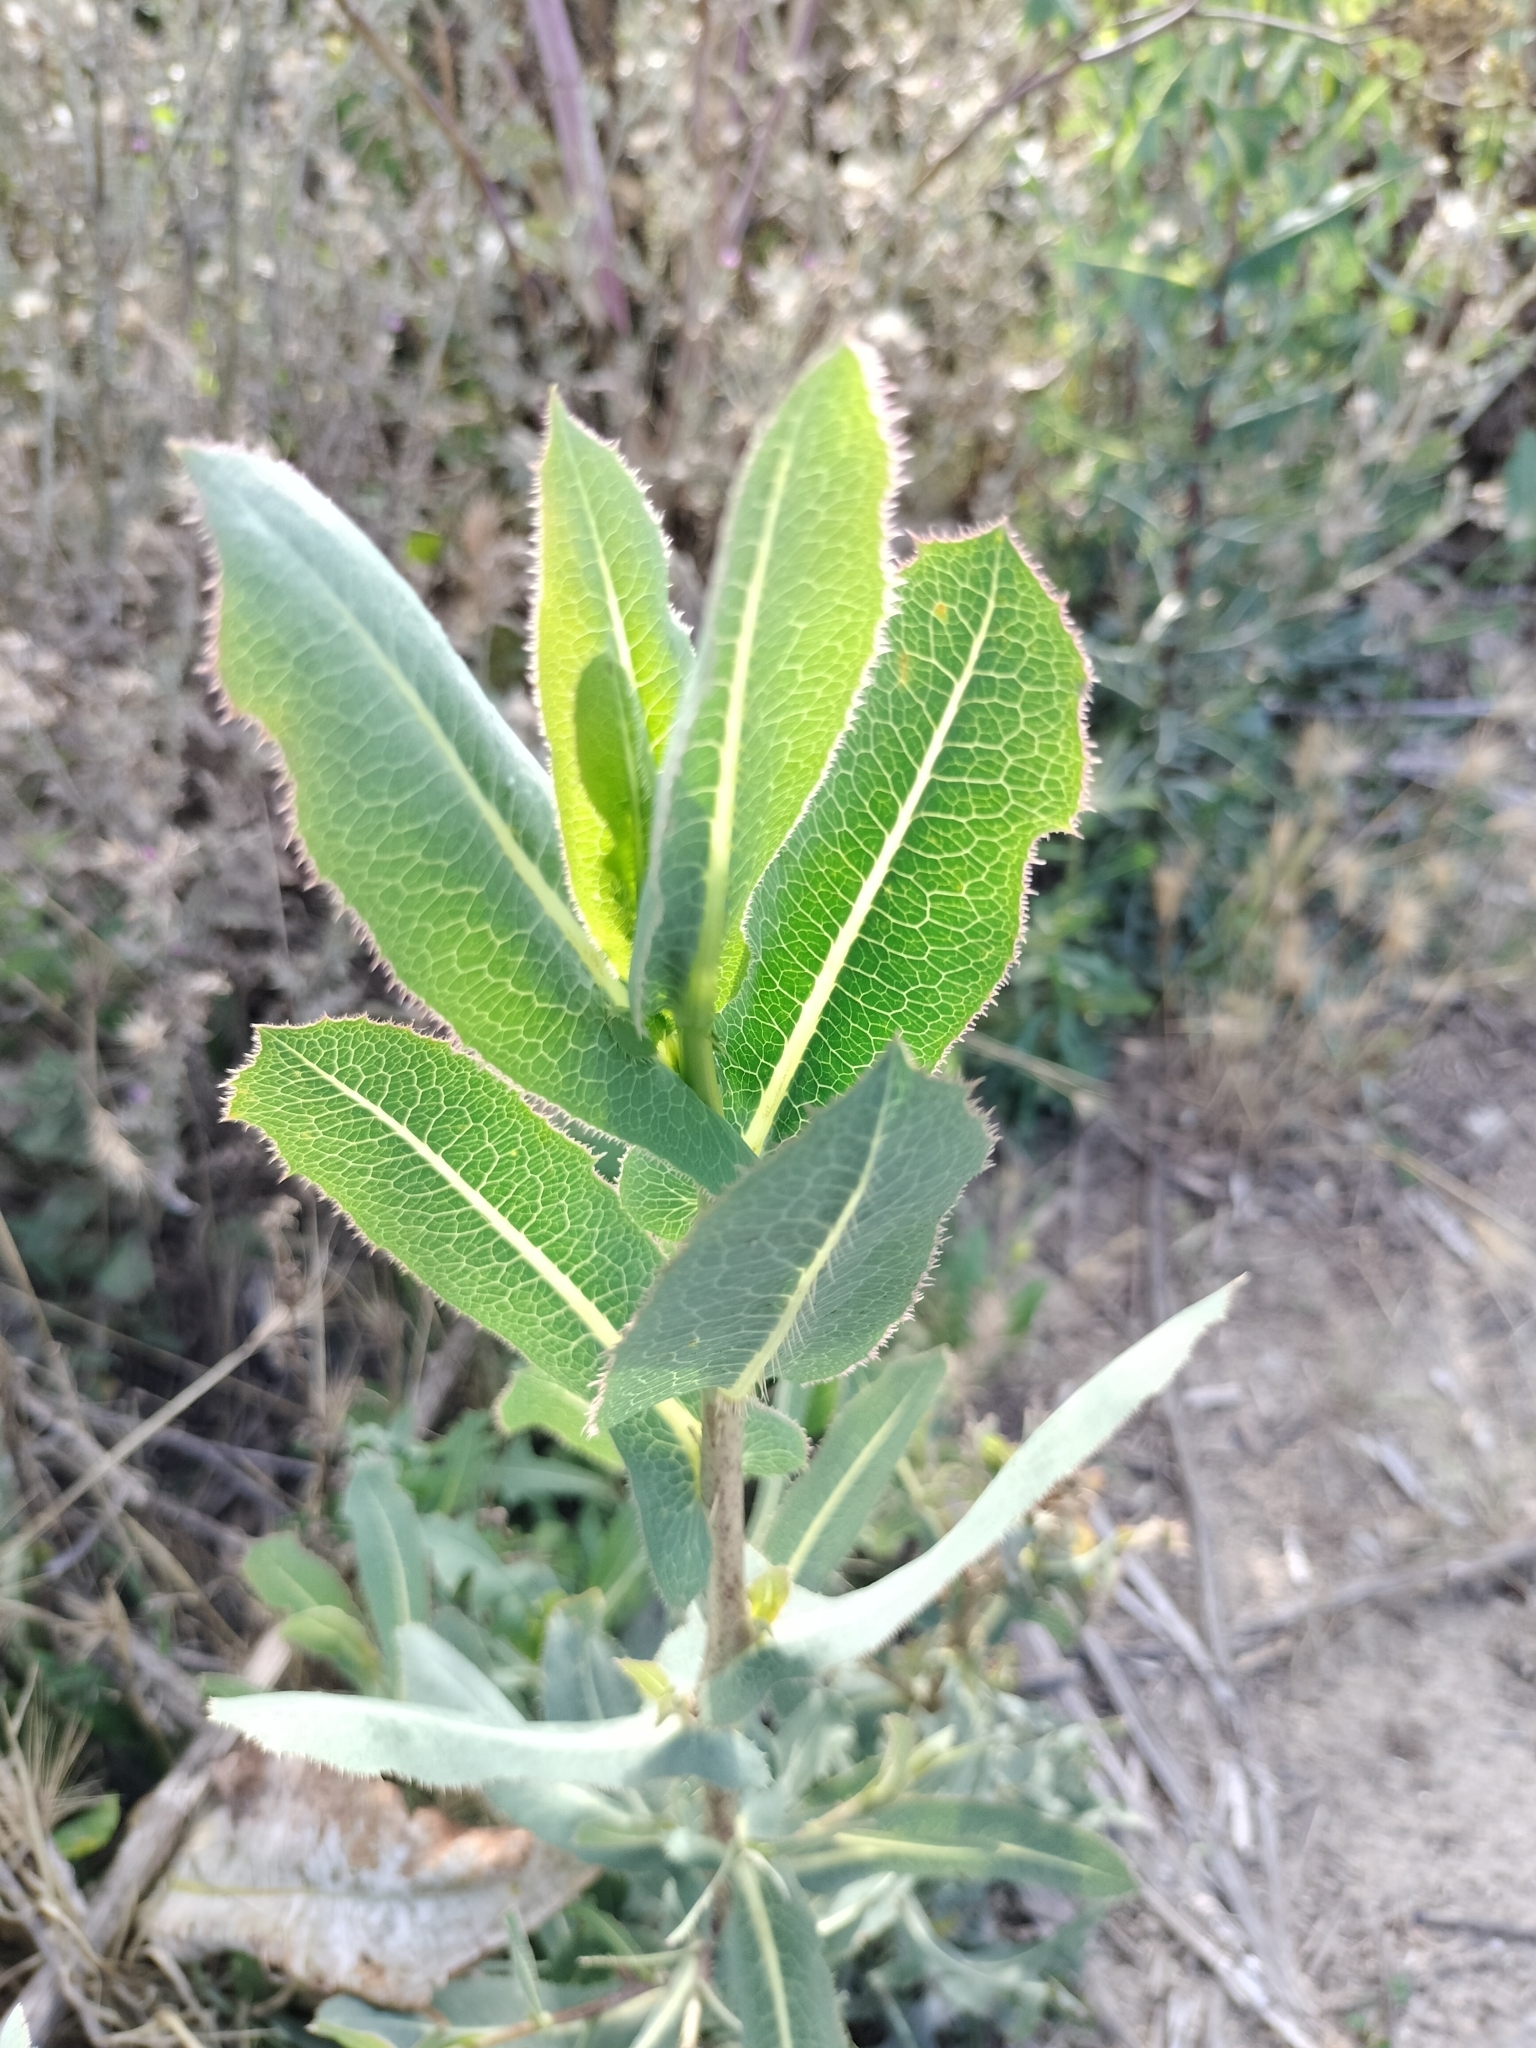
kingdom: Plantae
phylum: Tracheophyta
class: Magnoliopsida
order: Asterales
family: Asteraceae
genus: Lactuca
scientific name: Lactuca serriola
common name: Prickly lettuce
